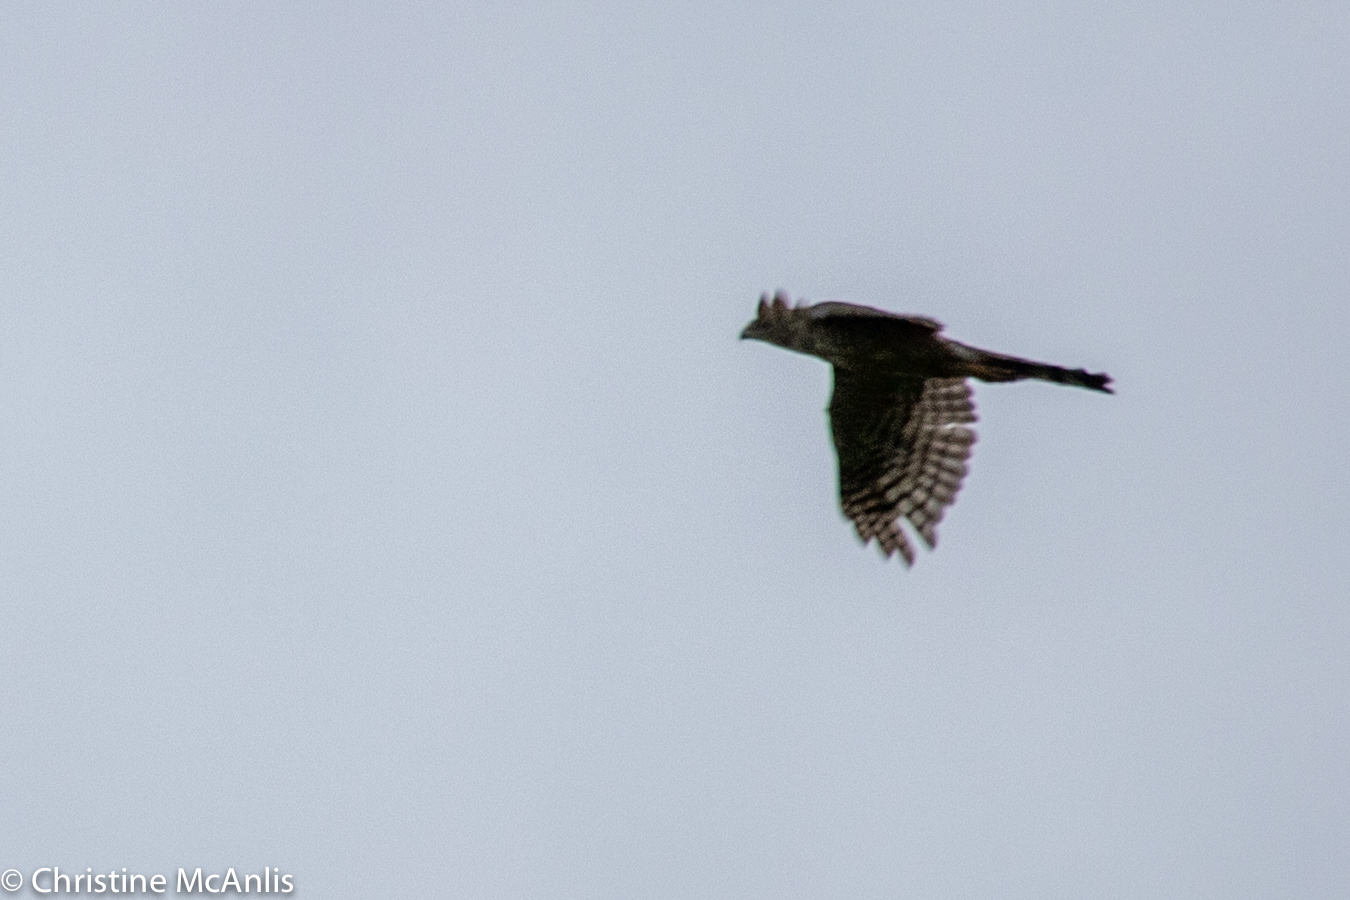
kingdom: Animalia
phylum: Chordata
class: Aves
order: Accipitriformes
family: Accipitridae
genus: Accipiter
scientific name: Accipiter cooperii
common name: Cooper's hawk
